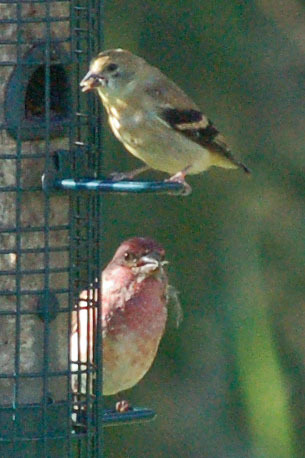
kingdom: Animalia
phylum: Chordata
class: Aves
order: Passeriformes
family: Fringillidae
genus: Haemorhous
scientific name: Haemorhous purpureus
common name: Purple finch
